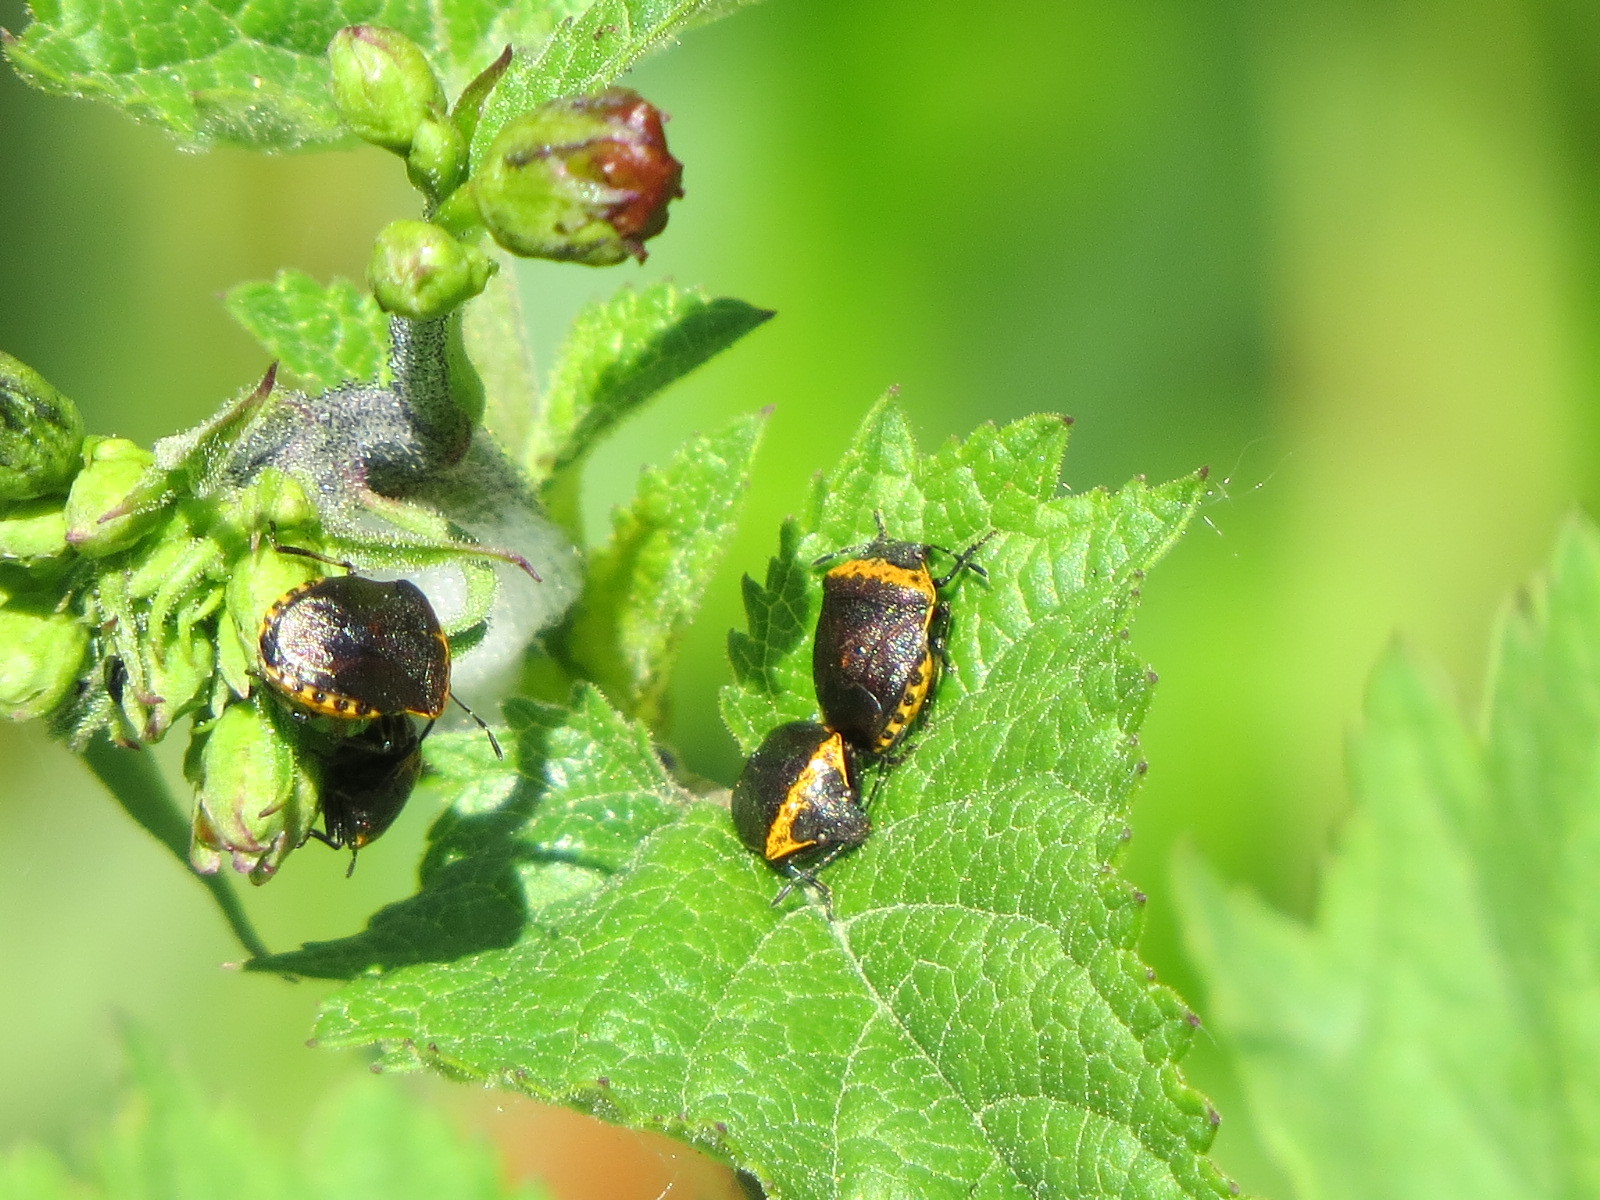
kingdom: Animalia
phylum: Arthropoda
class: Insecta
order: Hemiptera
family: Pentatomidae
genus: Cosmopepla
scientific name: Cosmopepla uhleri
